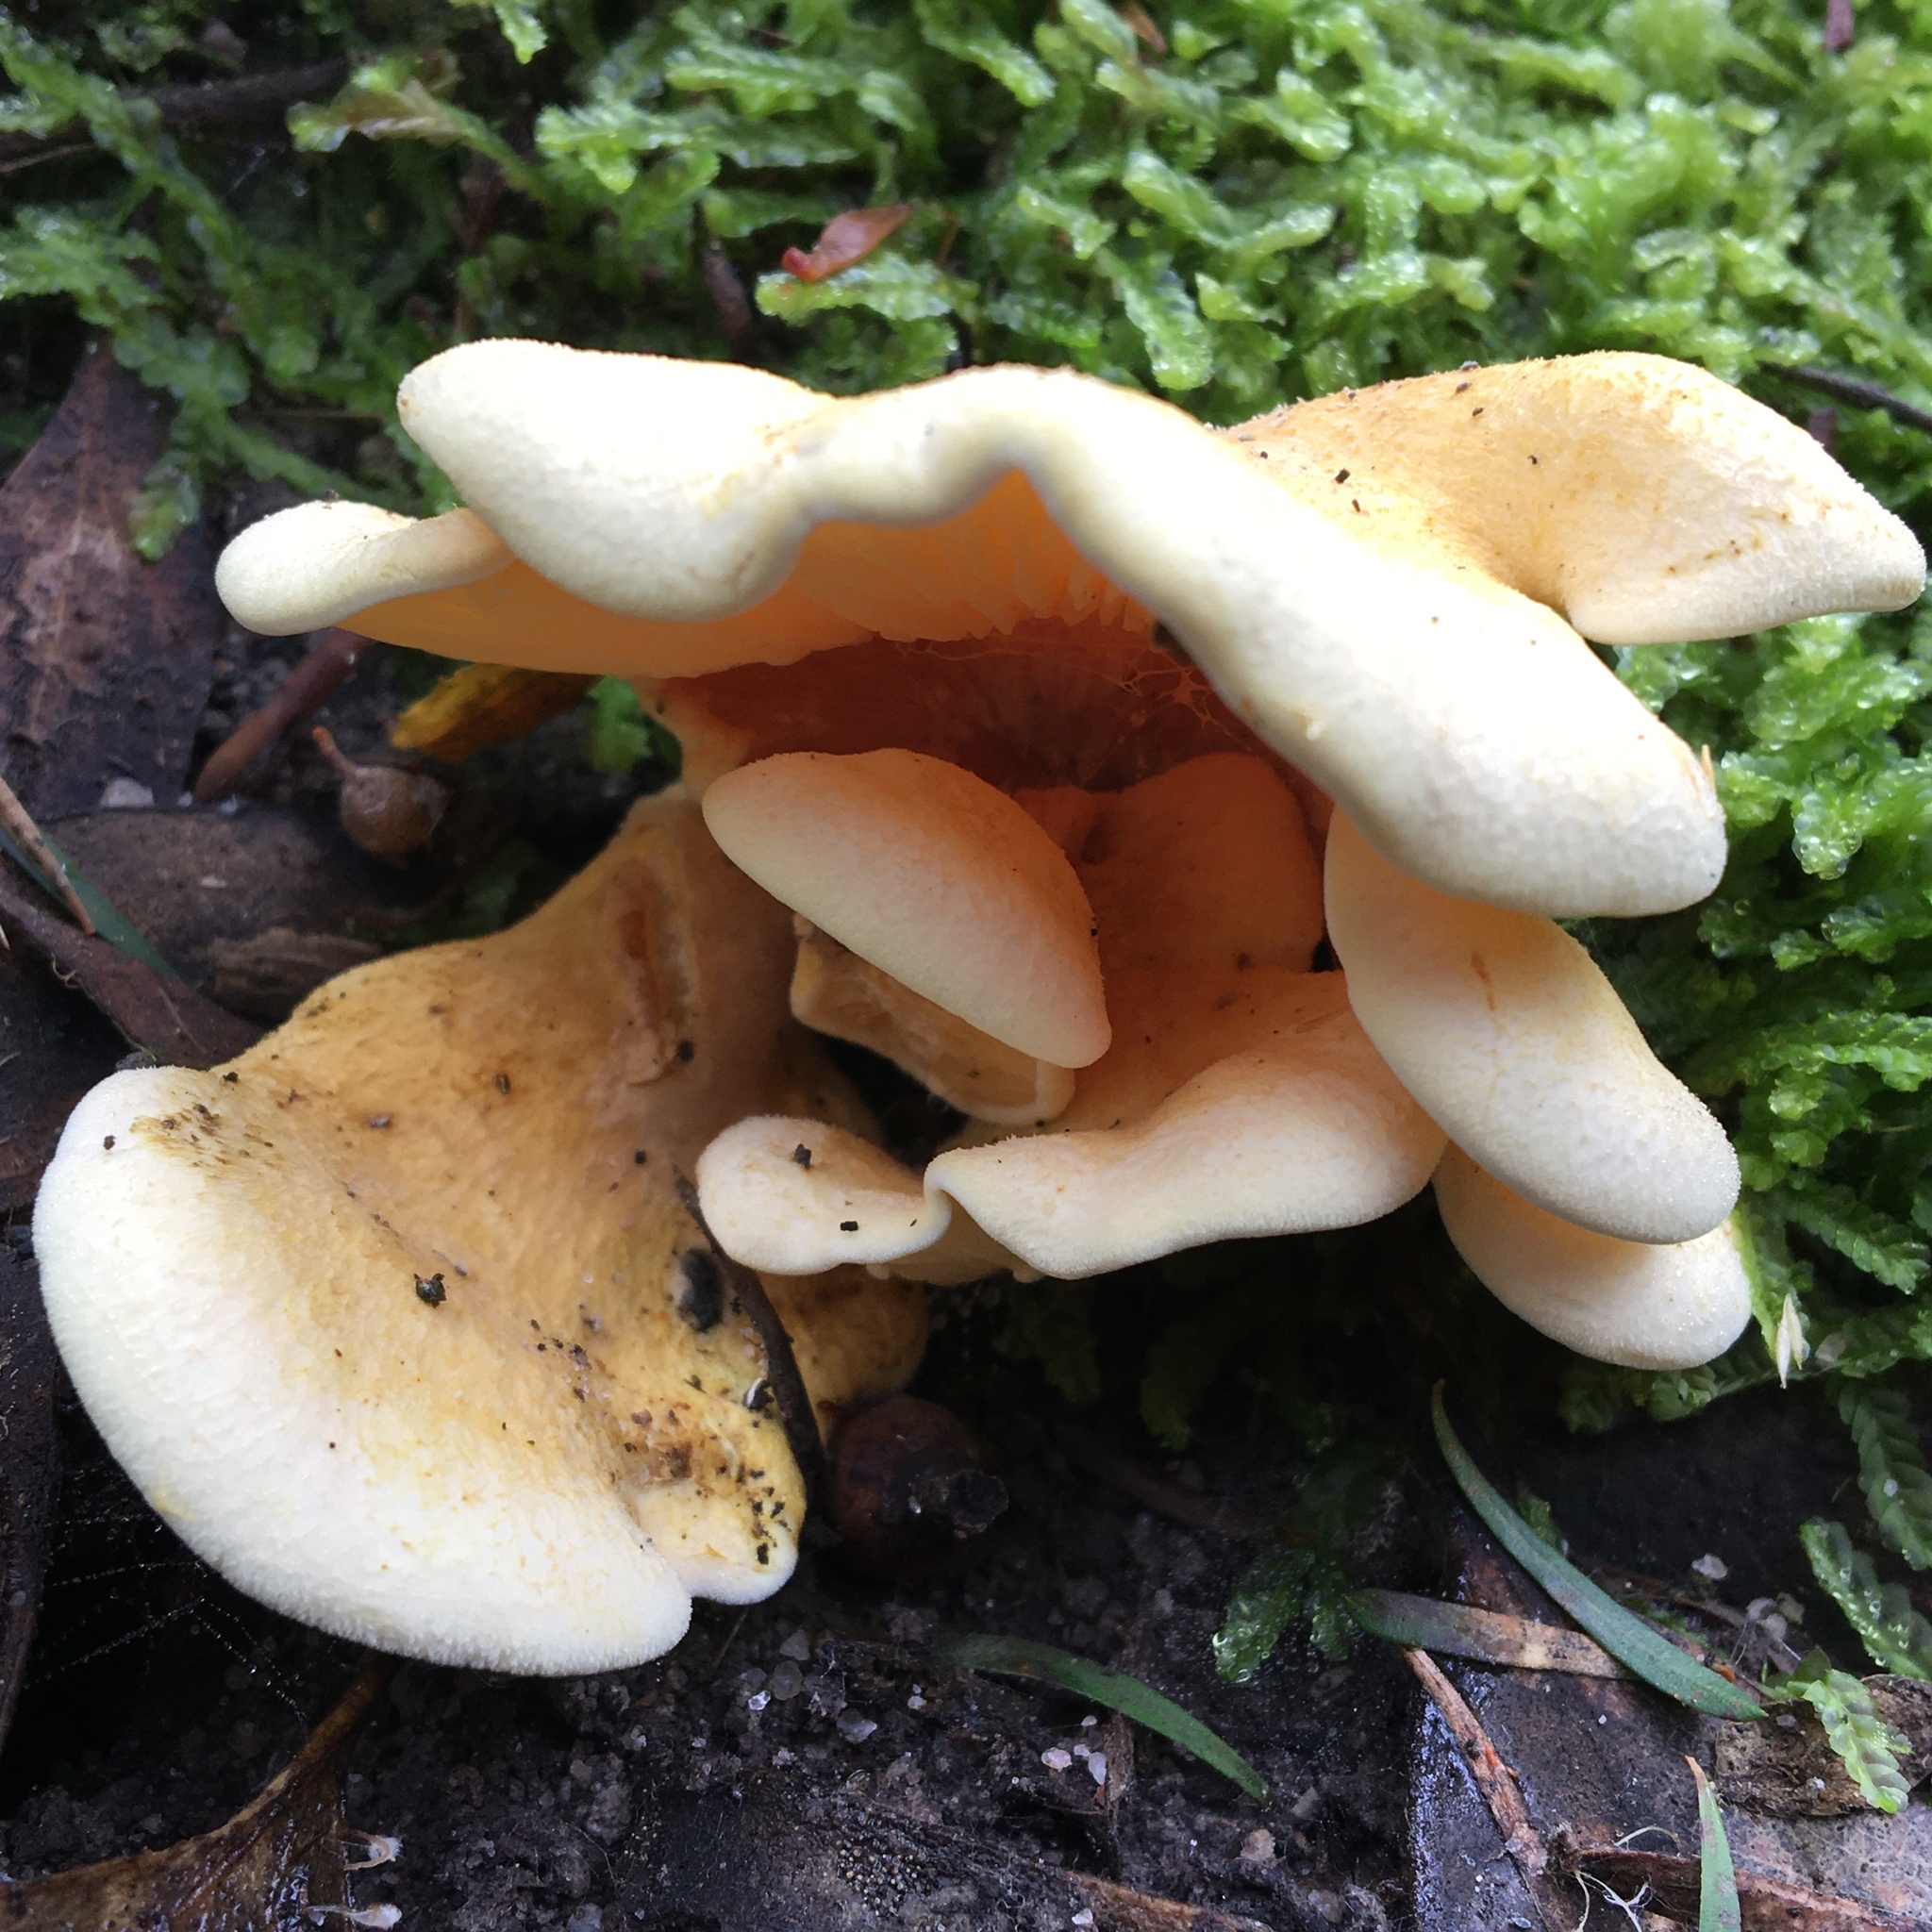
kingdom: Fungi
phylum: Basidiomycota
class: Agaricomycetes
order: Boletales
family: Paxillaceae
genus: Meiorganum
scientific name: Meiorganum curtisii
